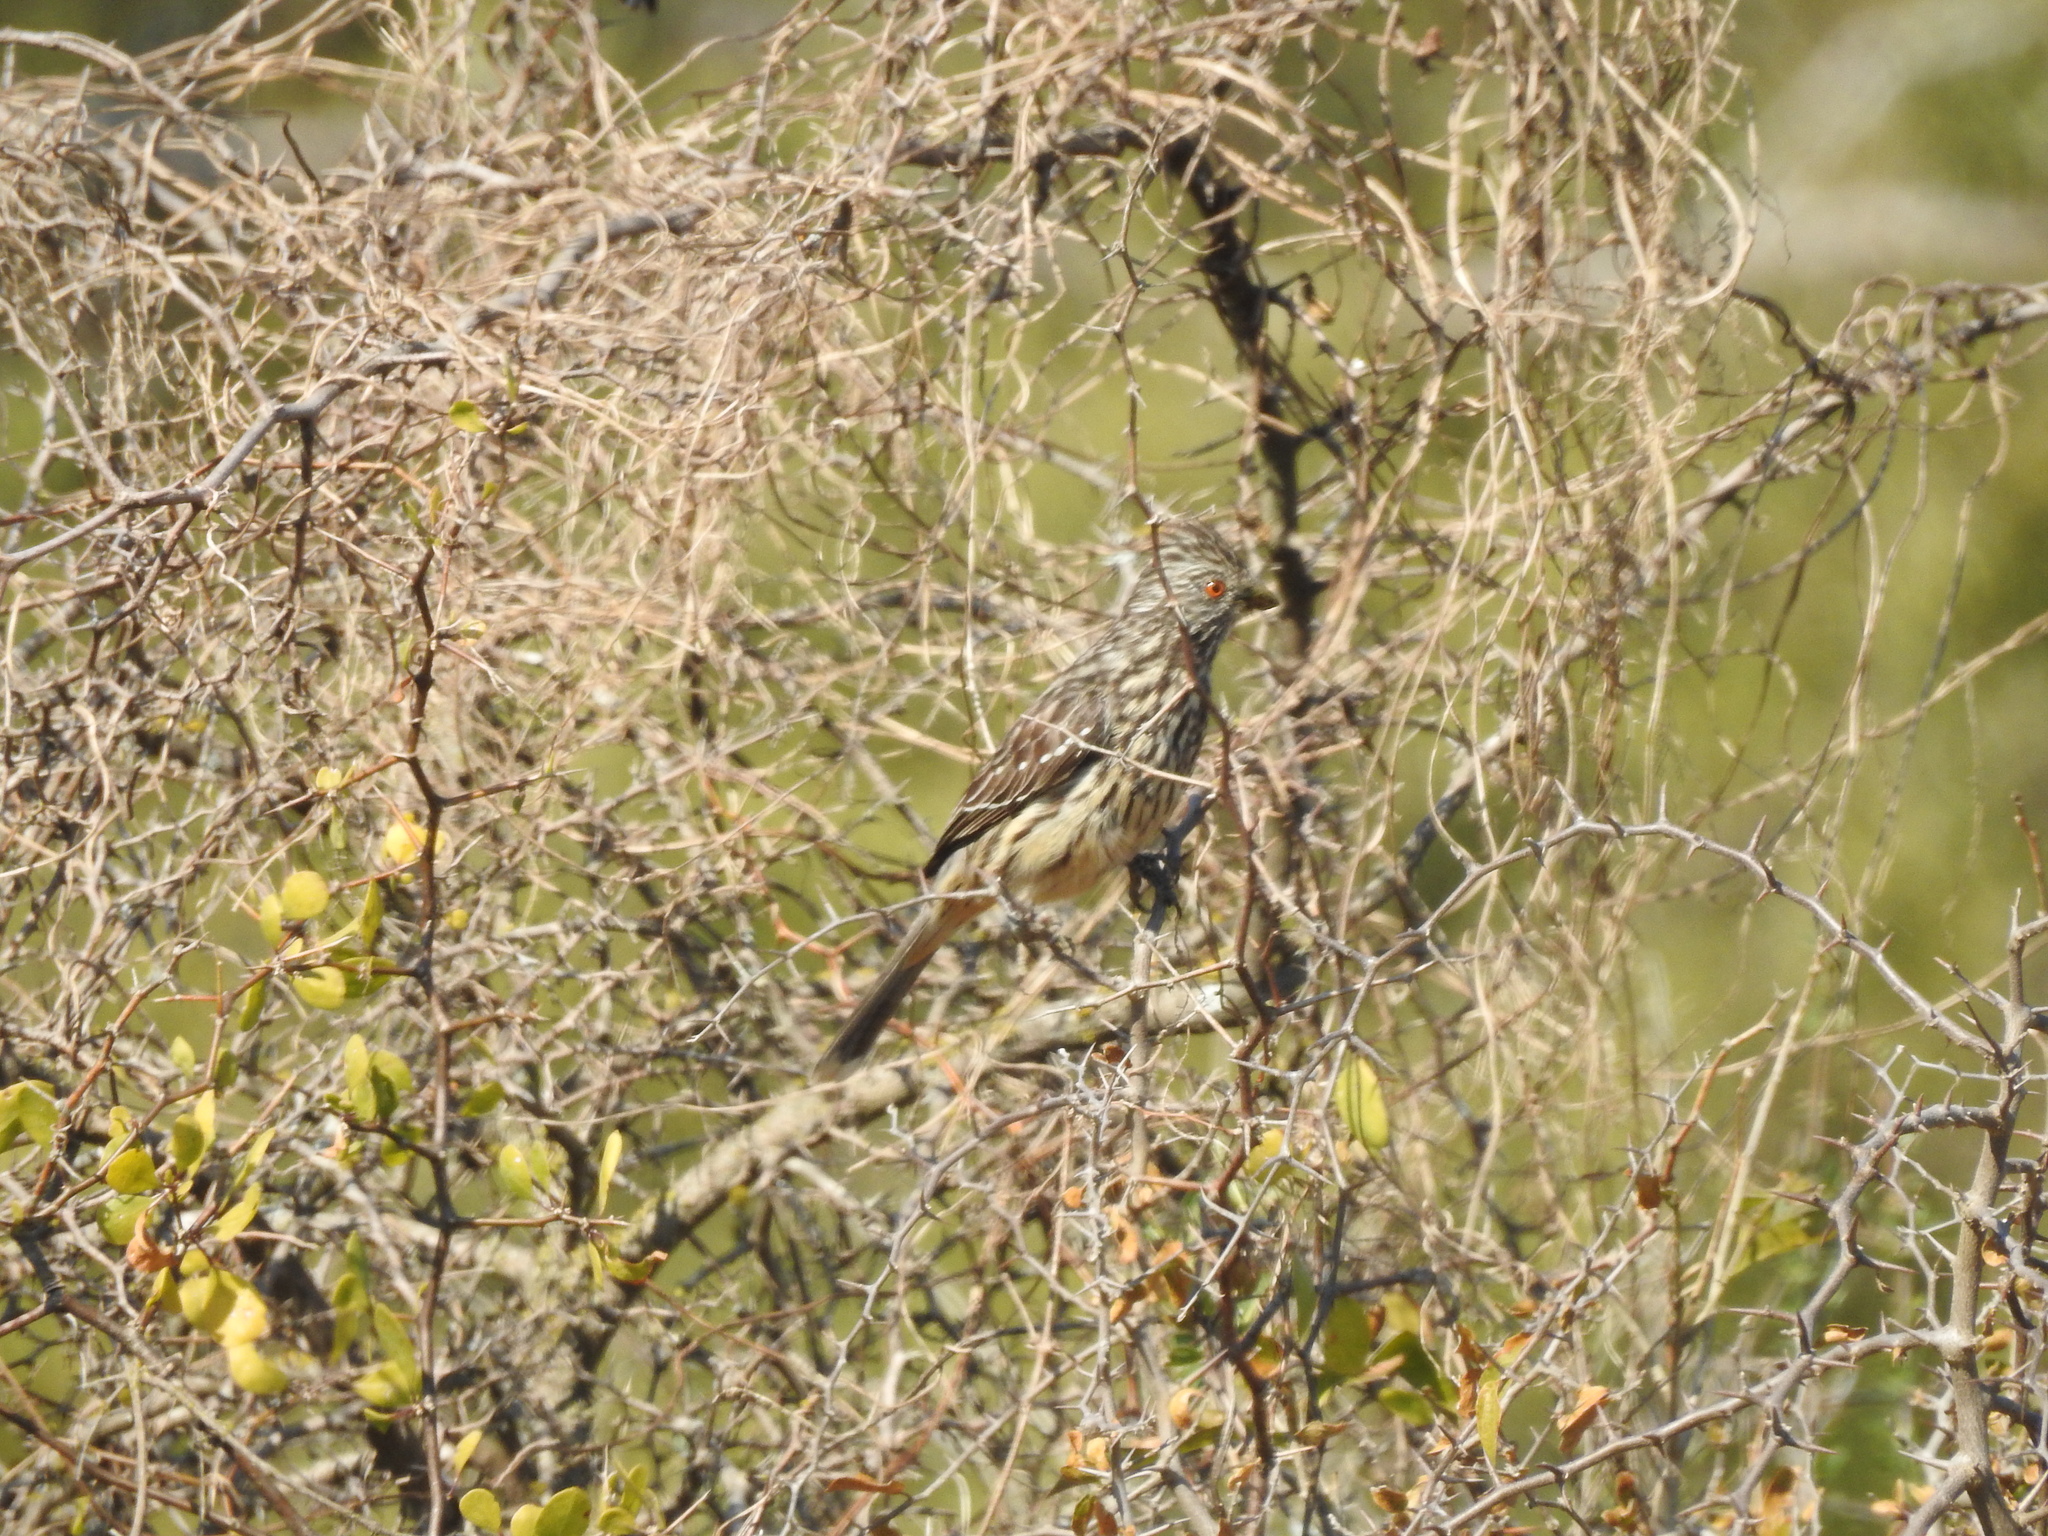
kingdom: Animalia
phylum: Chordata
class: Aves
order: Passeriformes
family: Cotingidae
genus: Phytotoma
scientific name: Phytotoma rutila
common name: White-tipped plantcutter
